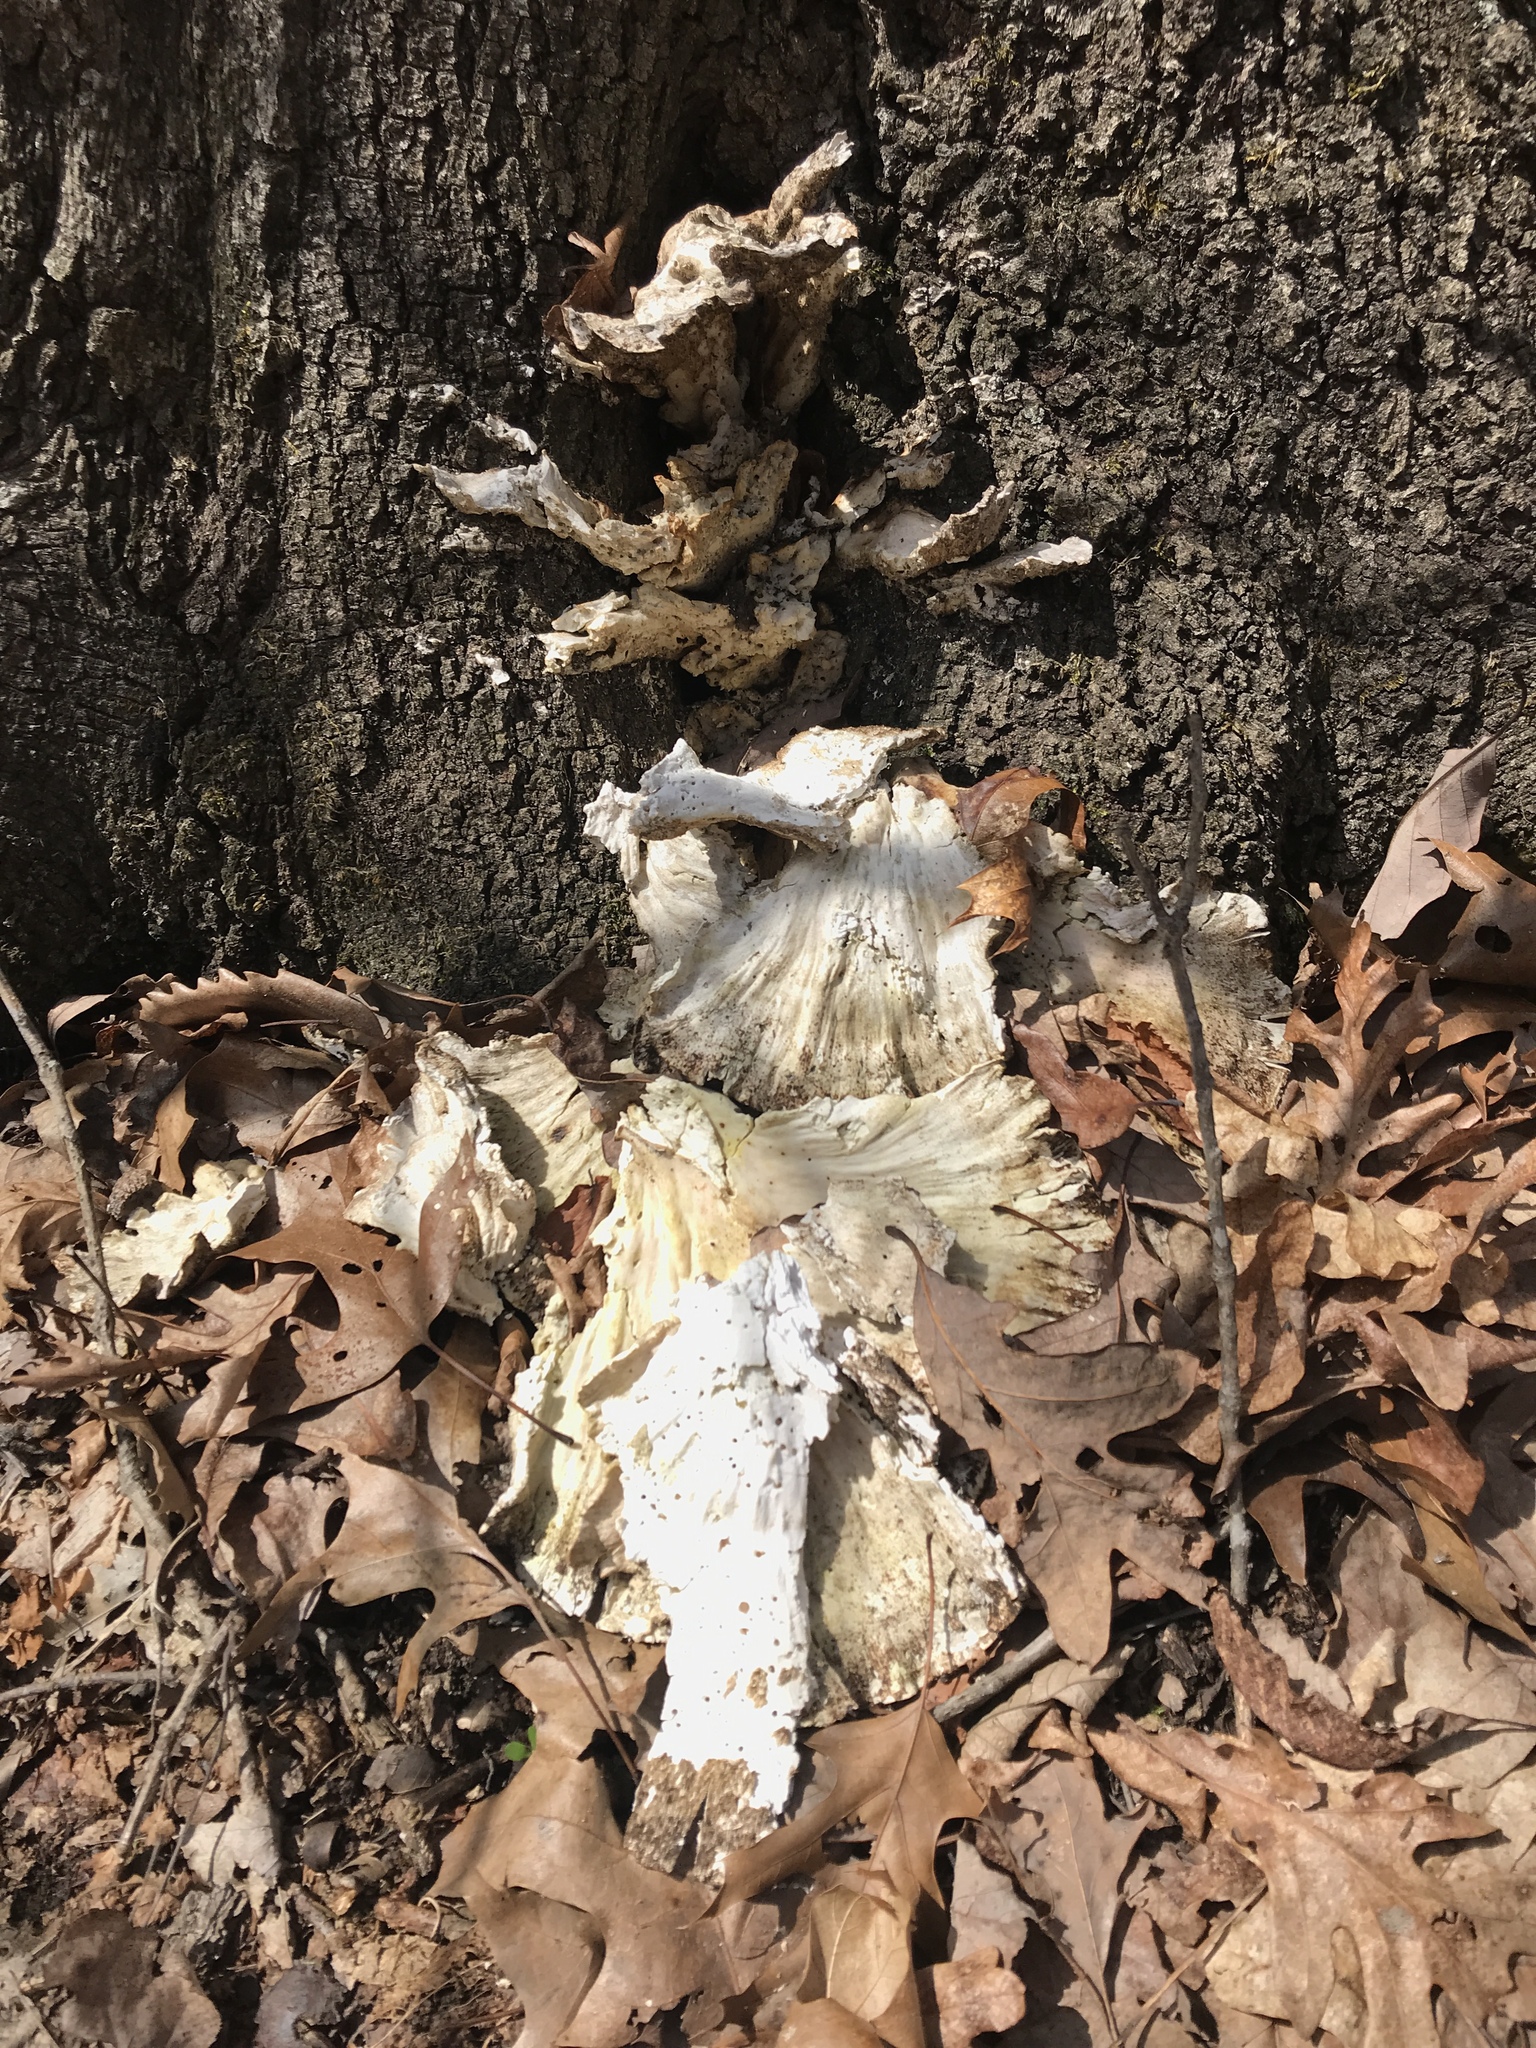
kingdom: Fungi
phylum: Basidiomycota
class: Agaricomycetes
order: Polyporales
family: Laetiporaceae
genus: Laetiporus
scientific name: Laetiporus sulphureus
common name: Chicken of the woods
